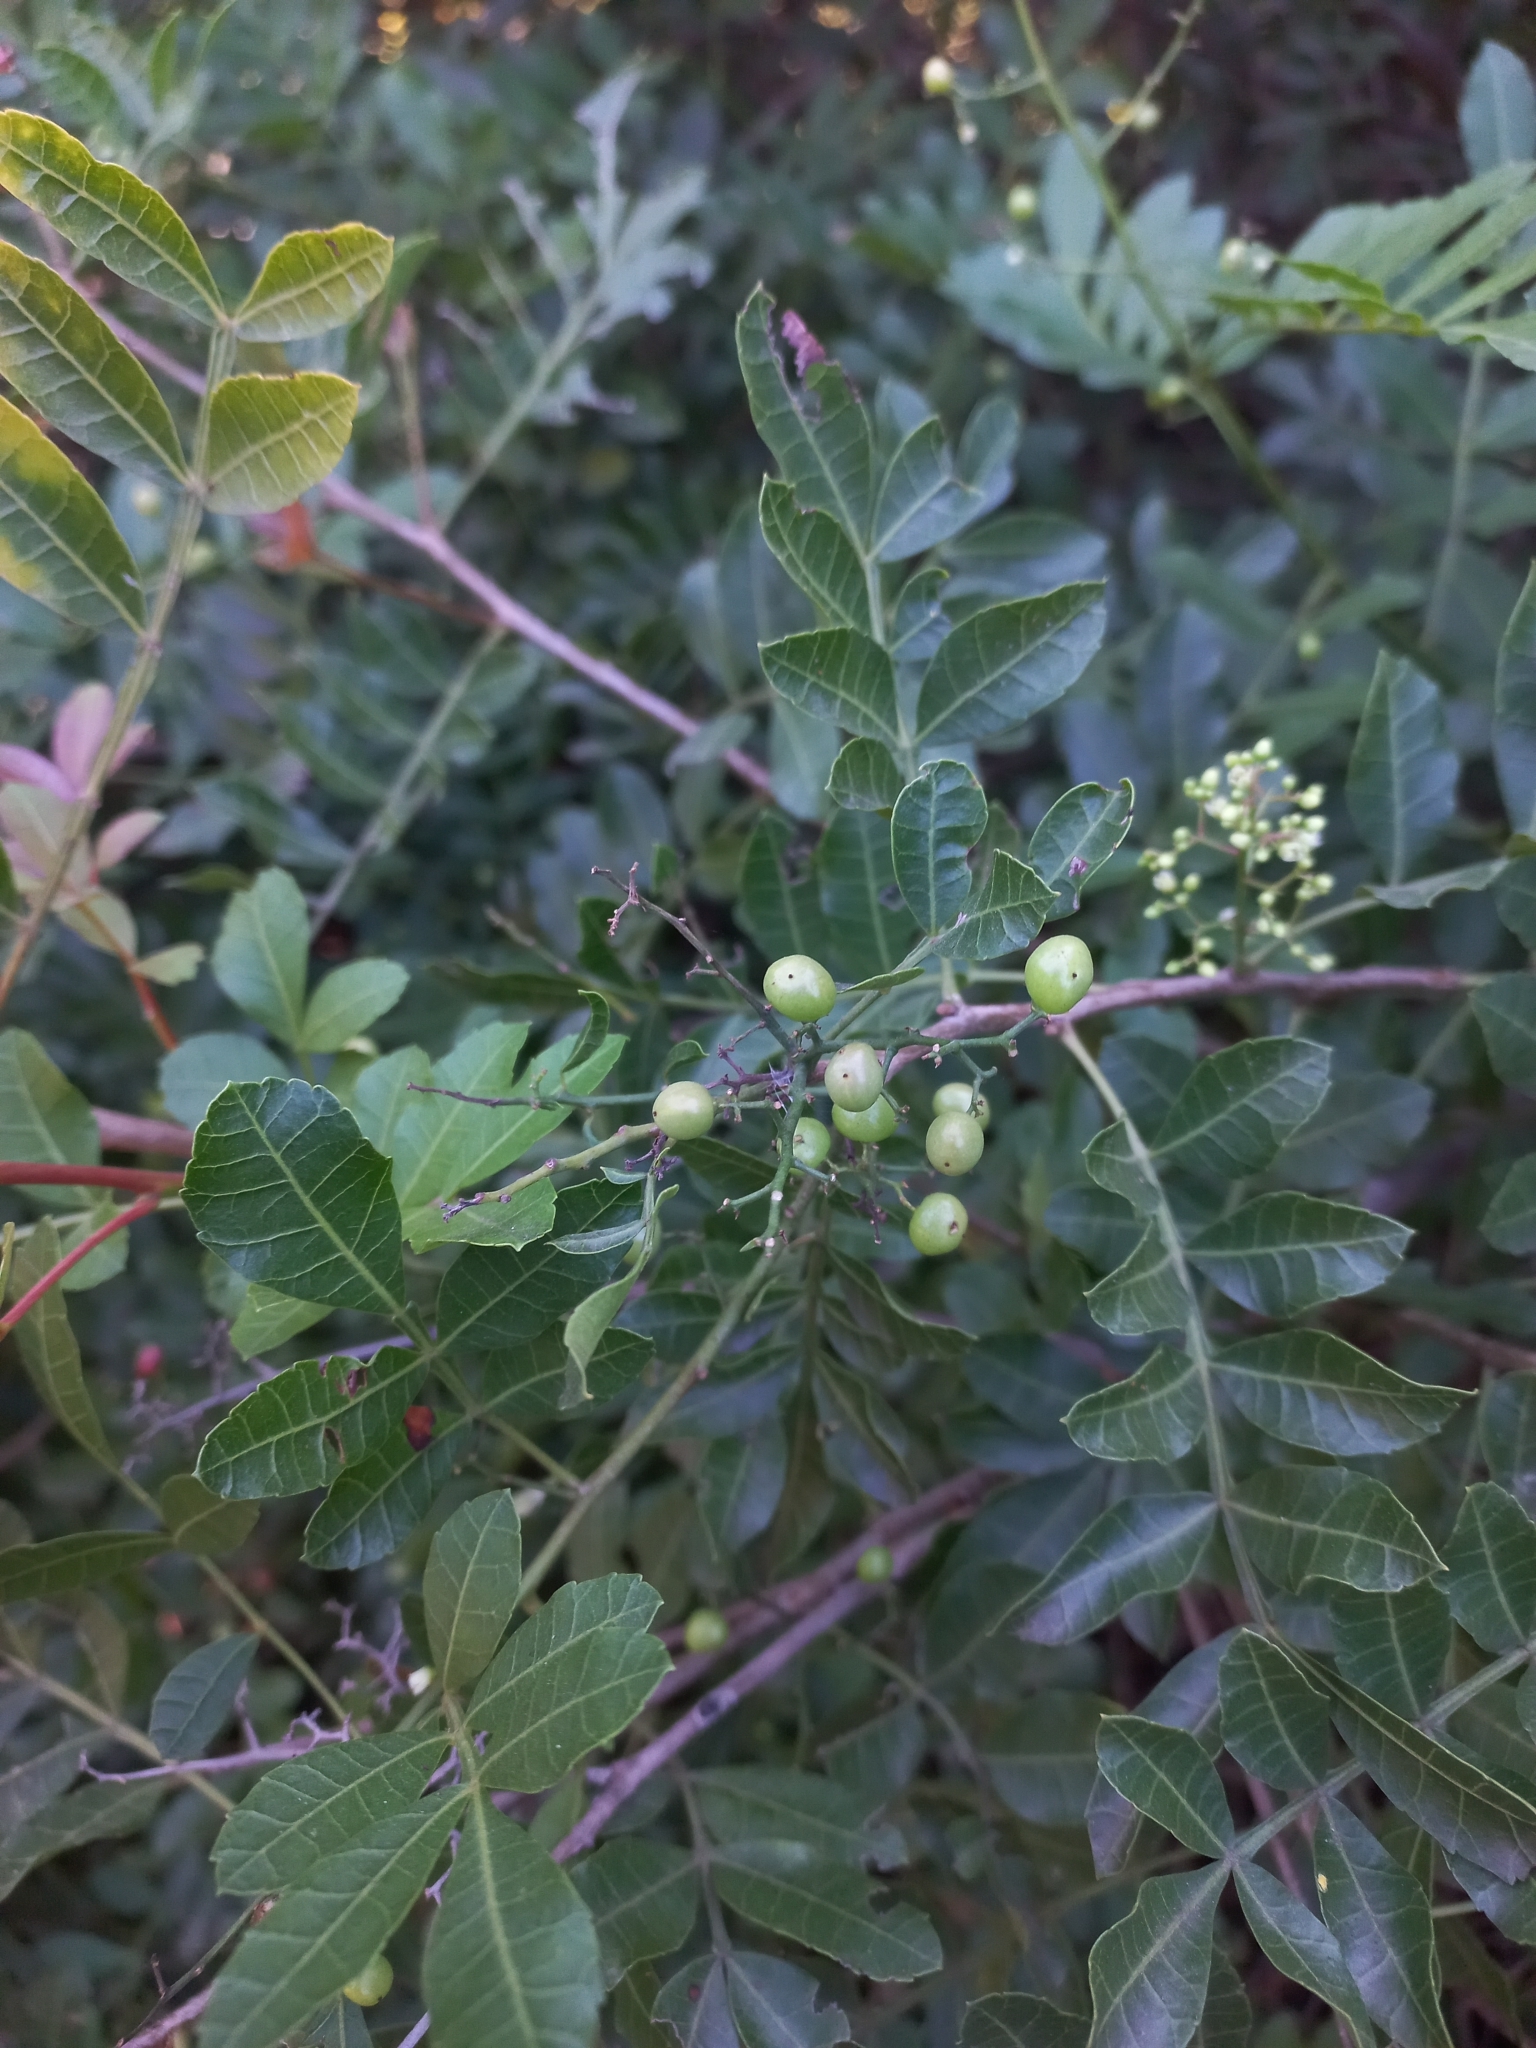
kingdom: Plantae
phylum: Tracheophyta
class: Magnoliopsida
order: Sapindales
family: Anacardiaceae
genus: Schinus
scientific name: Schinus weinmanniifolia
